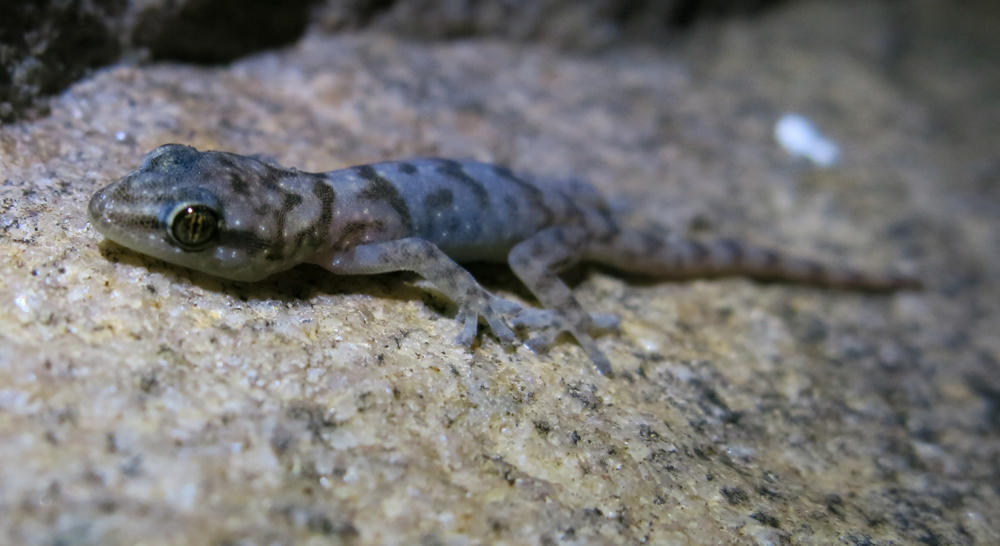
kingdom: Animalia
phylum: Chordata
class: Squamata
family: Gekkonidae
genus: Afroedura
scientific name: Afroedura pienaari
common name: Pienaar’s rock gecko
